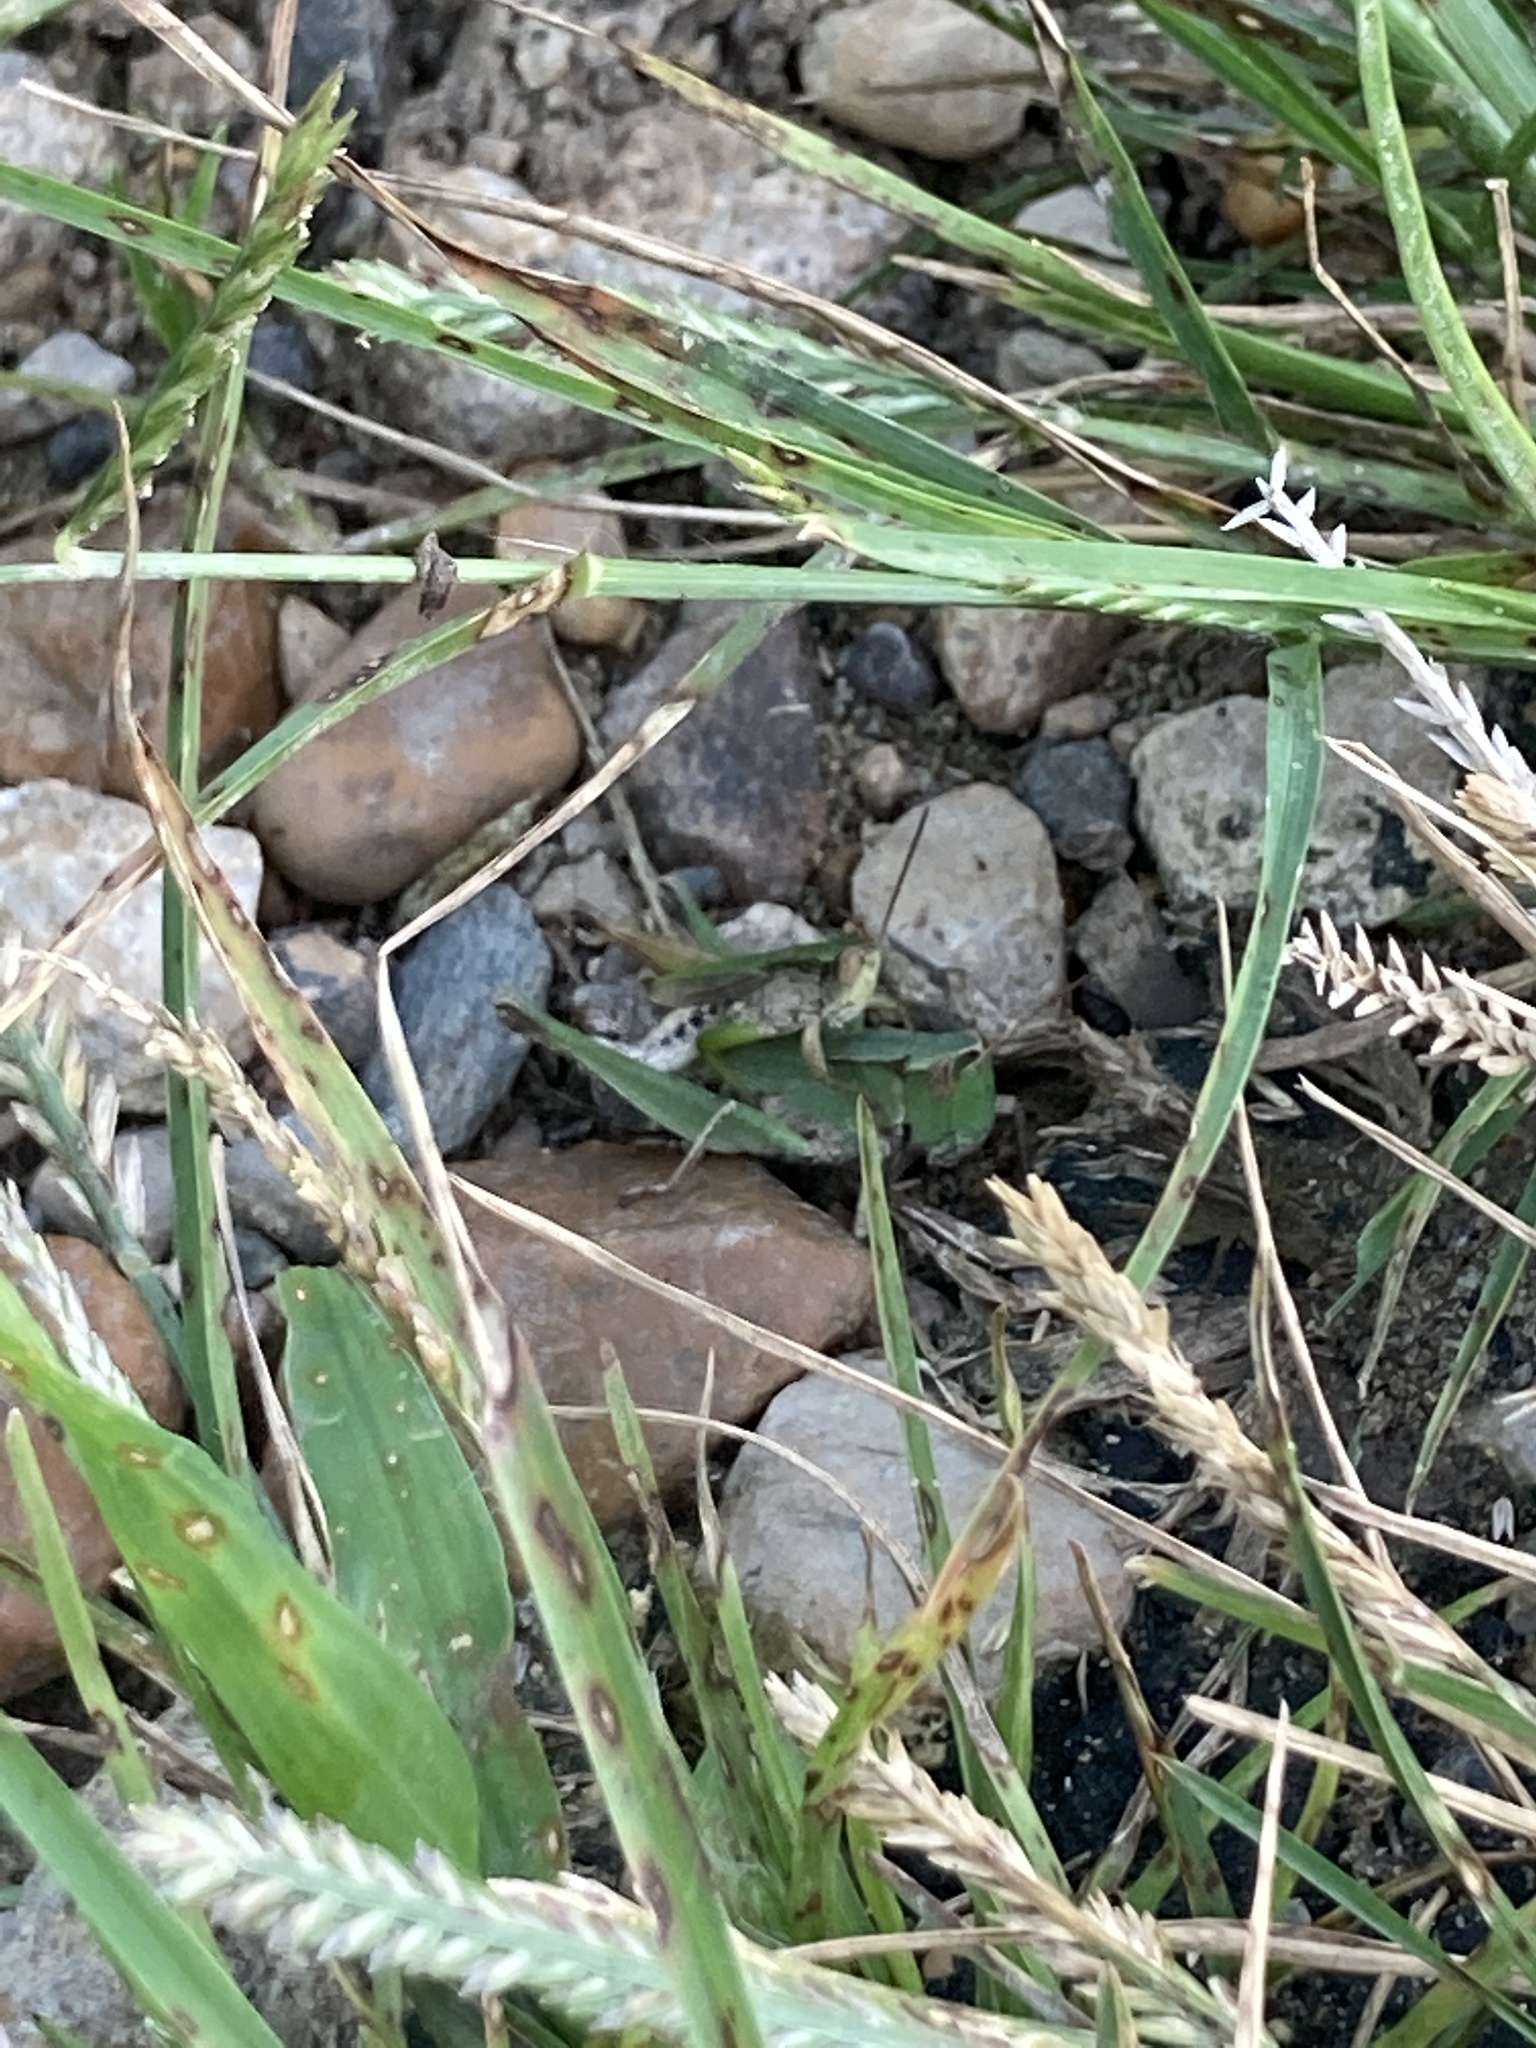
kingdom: Animalia
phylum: Arthropoda
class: Insecta
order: Orthoptera
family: Acrididae
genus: Dichromorpha
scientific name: Dichromorpha viridis
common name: Short-winged green grasshopper
